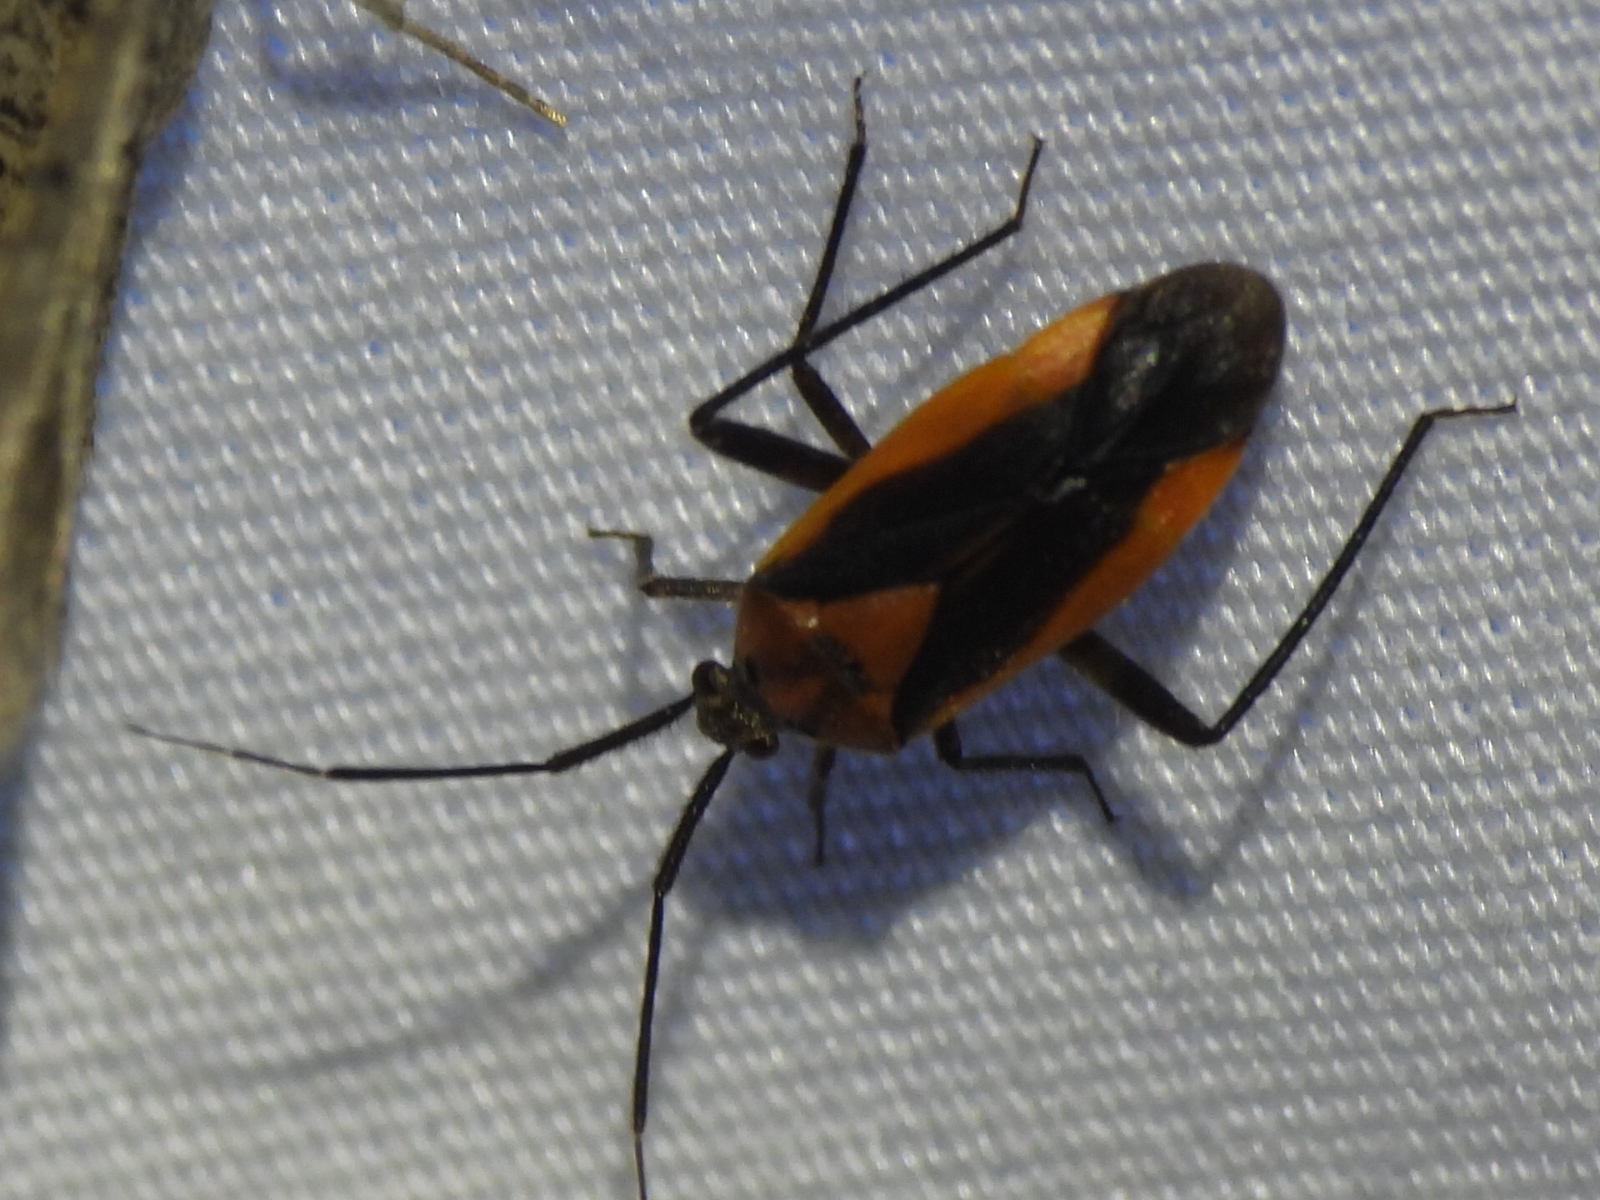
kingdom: Animalia
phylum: Arthropoda
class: Insecta
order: Hemiptera
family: Miridae
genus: Taedia
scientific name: Taedia scrupea
